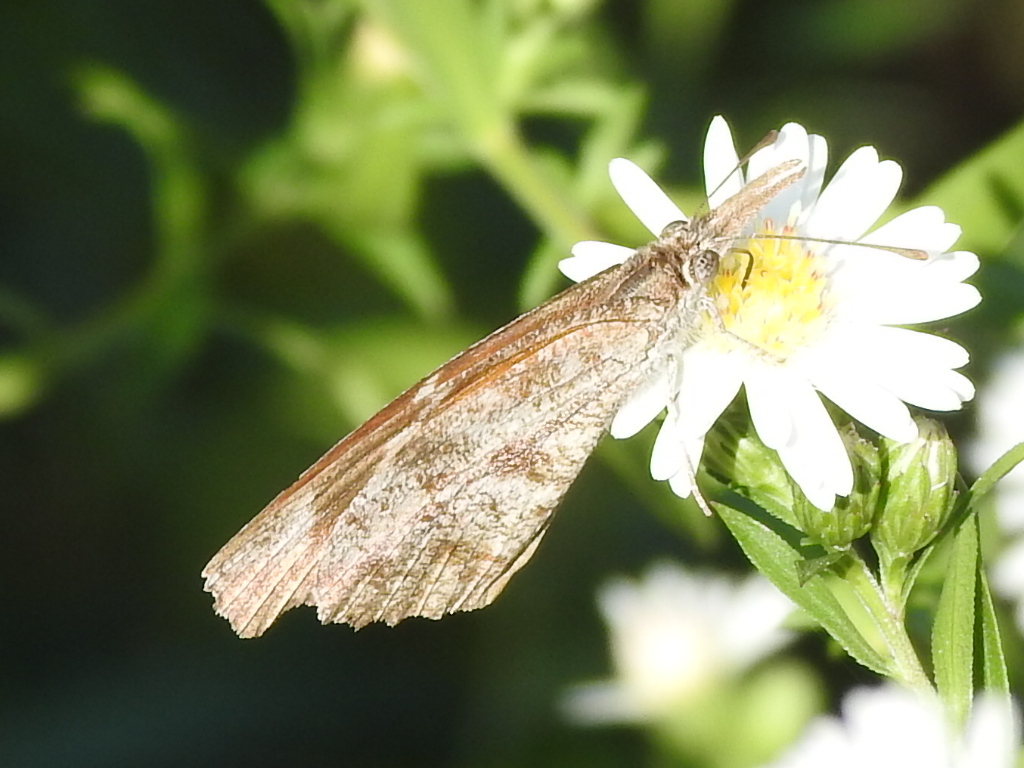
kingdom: Animalia
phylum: Arthropoda
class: Insecta
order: Lepidoptera
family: Nymphalidae
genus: Libytheana
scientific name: Libytheana carinenta
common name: American snout
